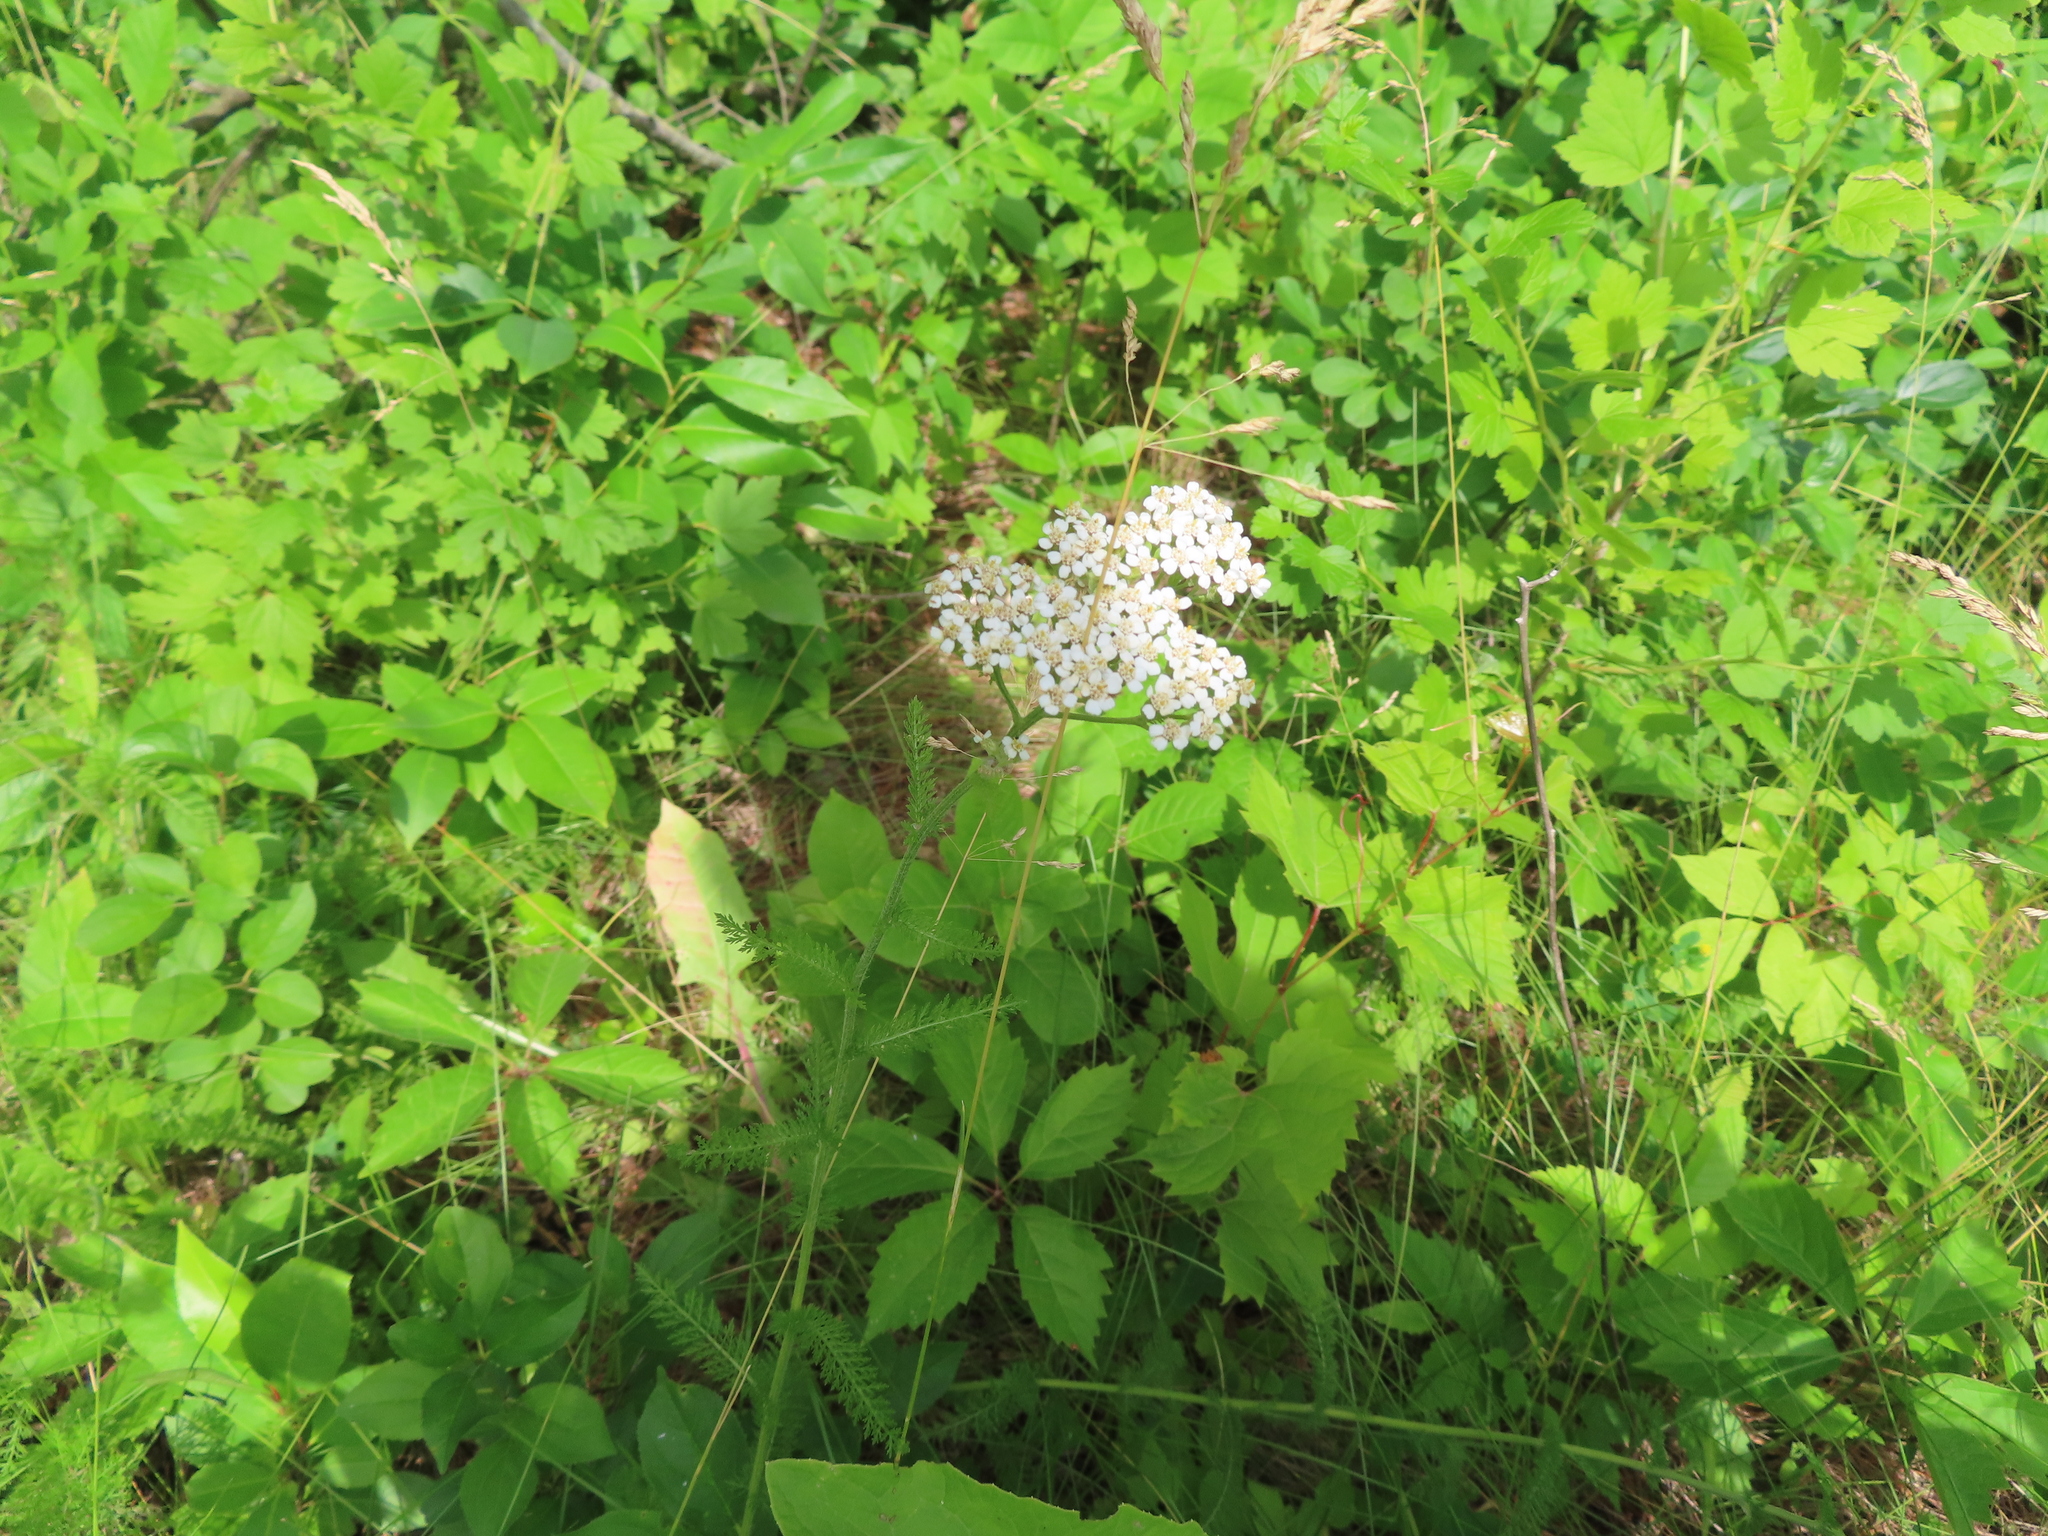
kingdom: Plantae
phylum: Tracheophyta
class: Magnoliopsida
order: Asterales
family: Asteraceae
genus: Achillea
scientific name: Achillea millefolium
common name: Yarrow
